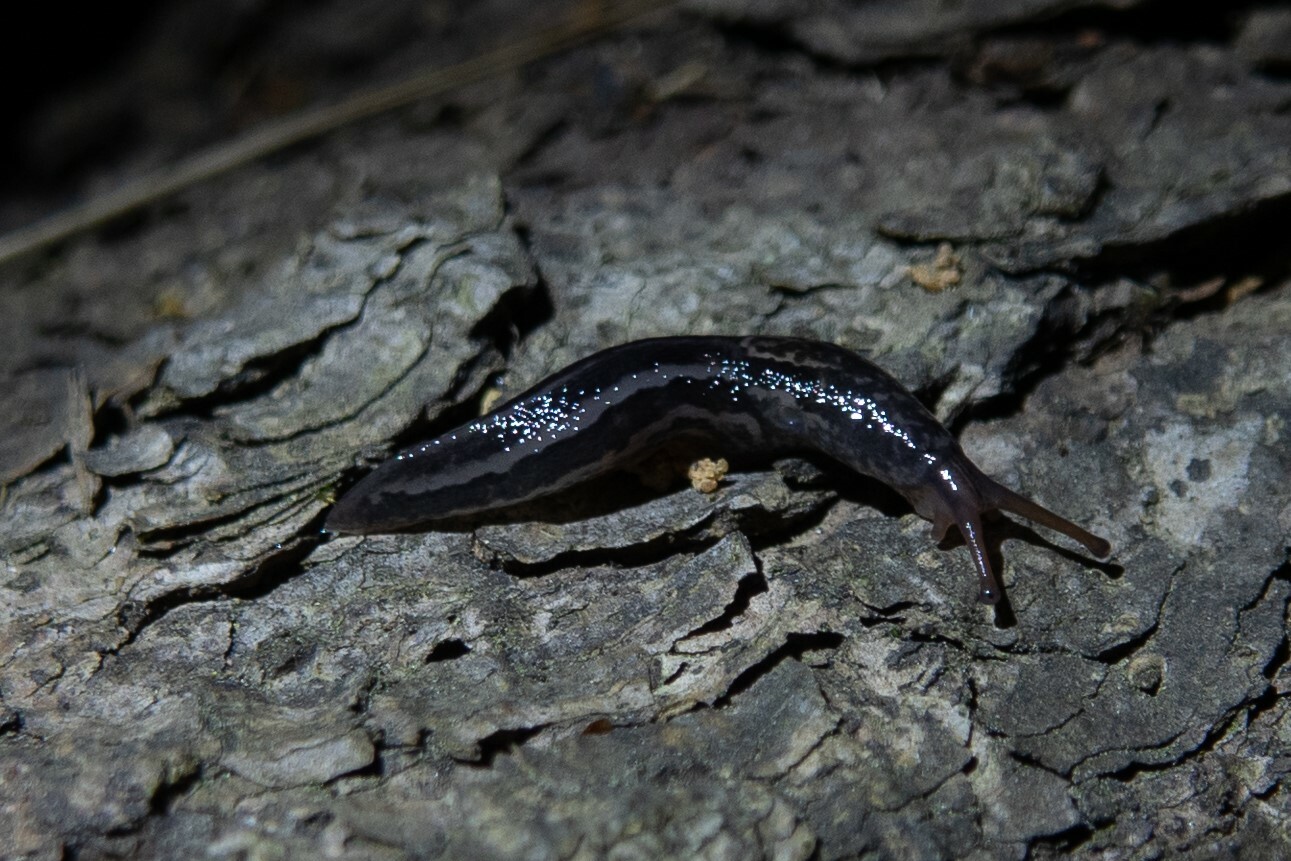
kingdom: Animalia
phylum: Mollusca
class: Gastropoda
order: Stylommatophora
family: Limacidae
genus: Limax
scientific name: Limax maximus
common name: Great grey slug
